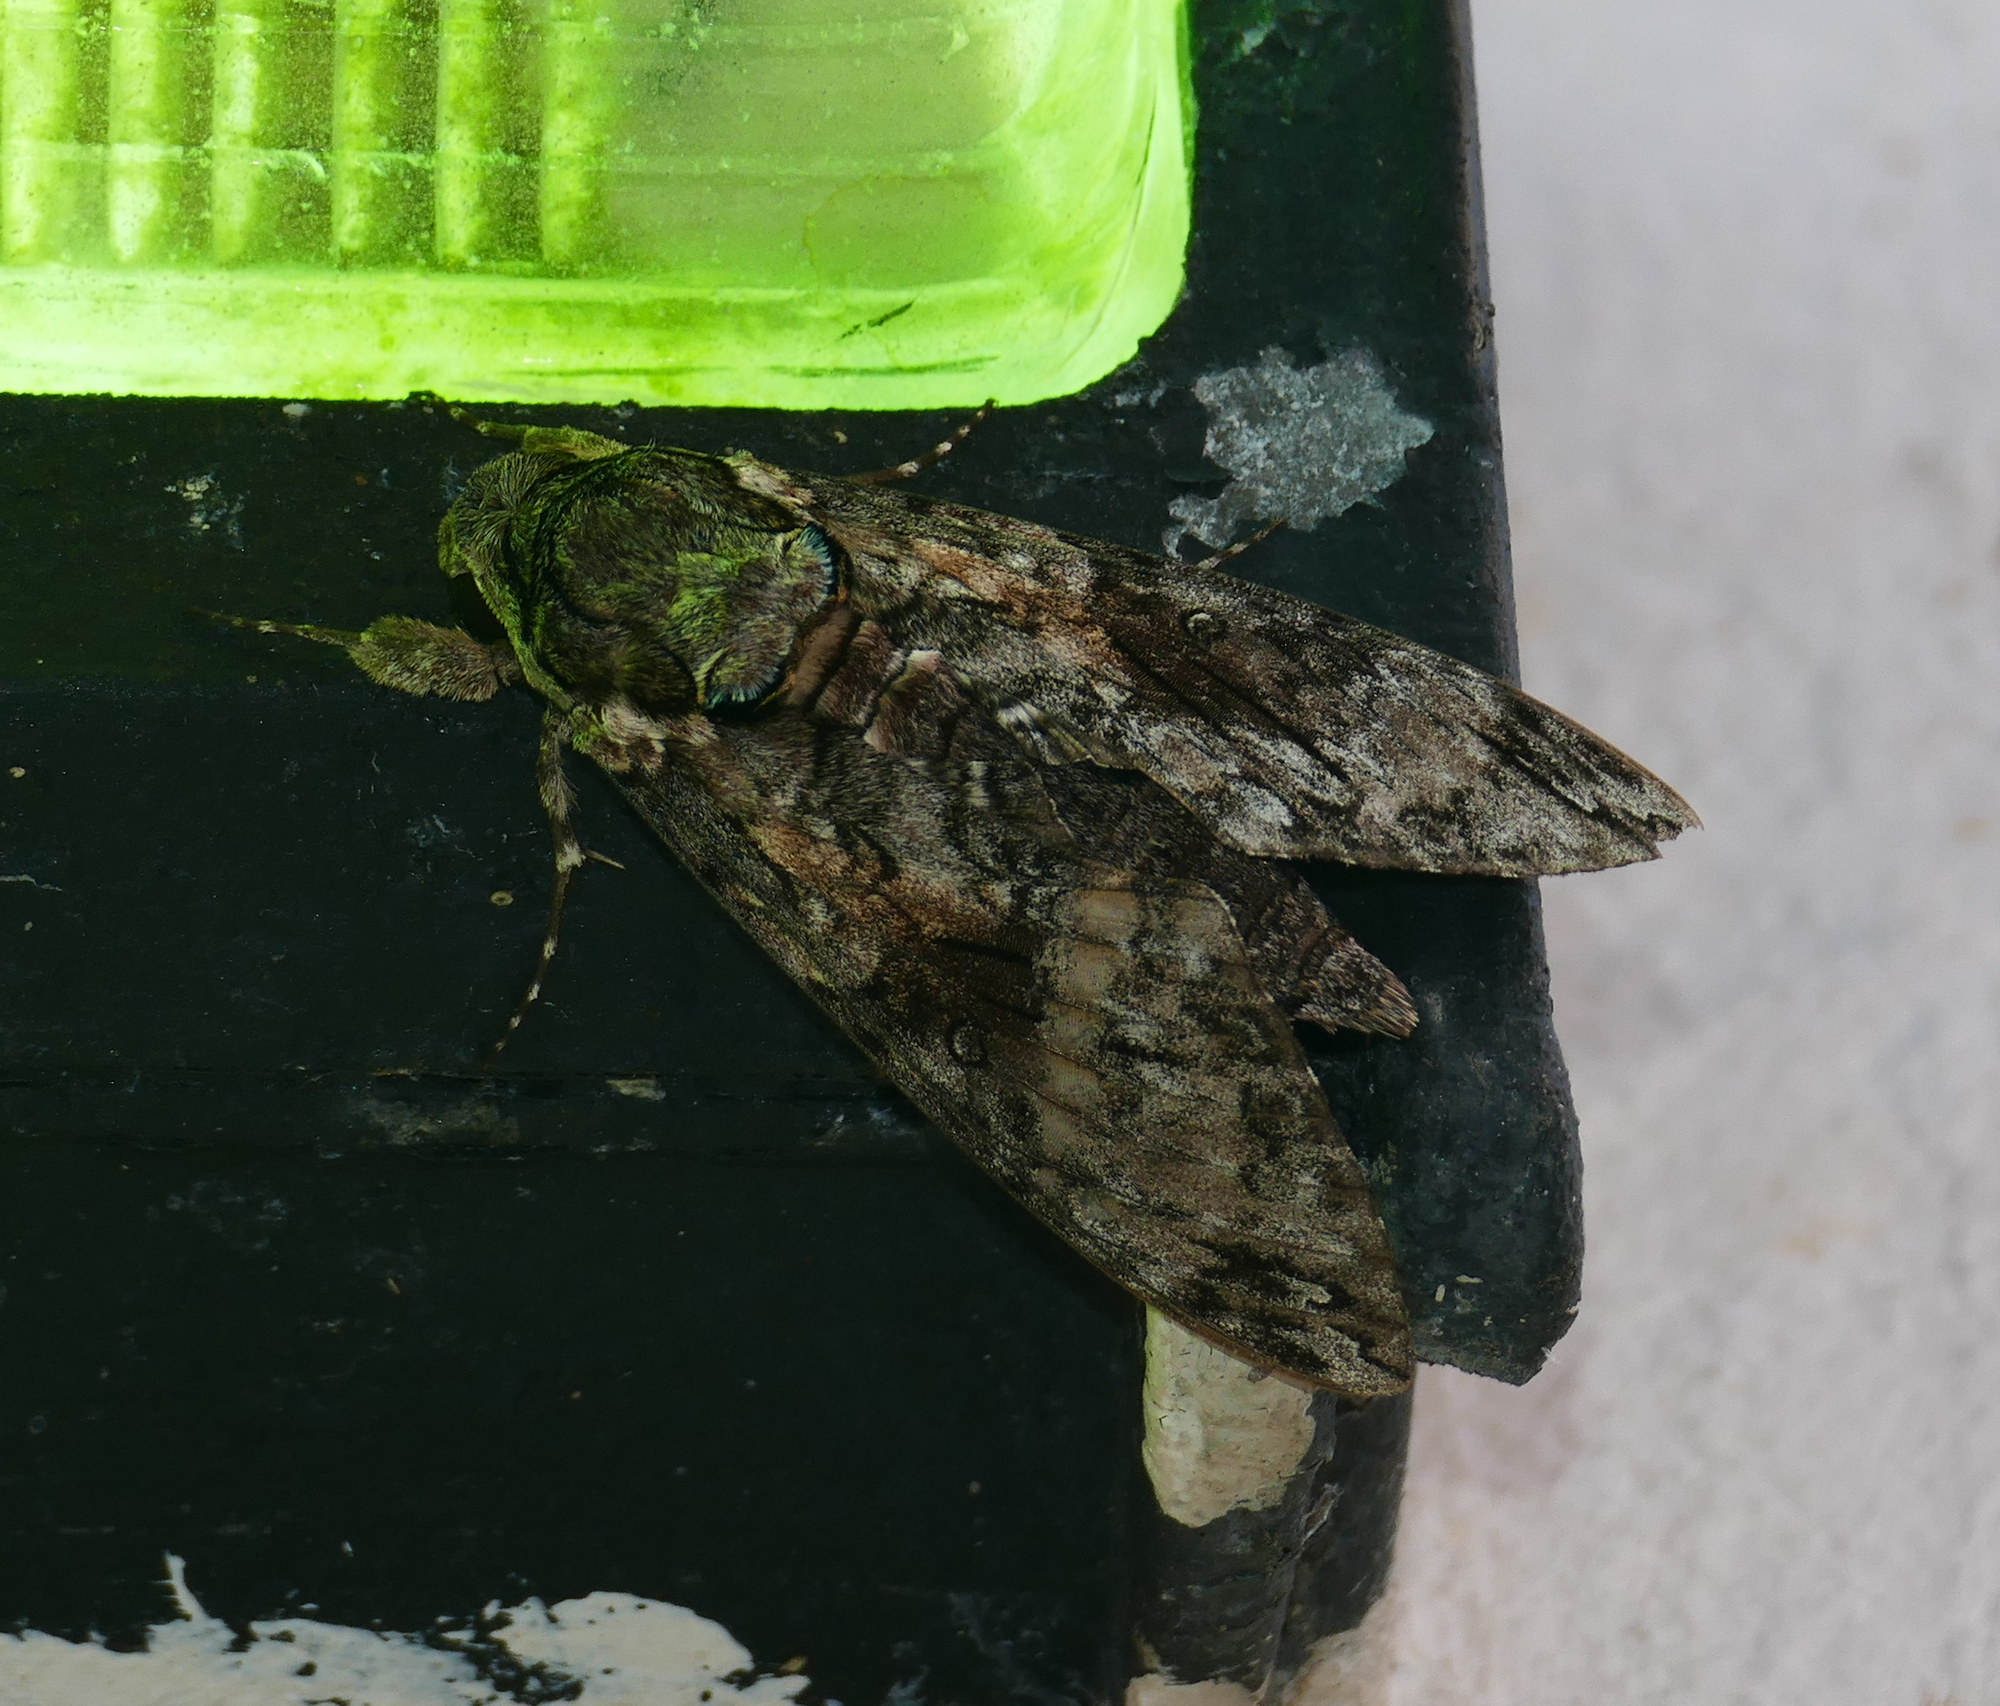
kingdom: Animalia
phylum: Arthropoda
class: Insecta
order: Lepidoptera
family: Sphingidae
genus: Agrius
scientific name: Agrius cingulata
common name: Pink-spotted hawkmoth
